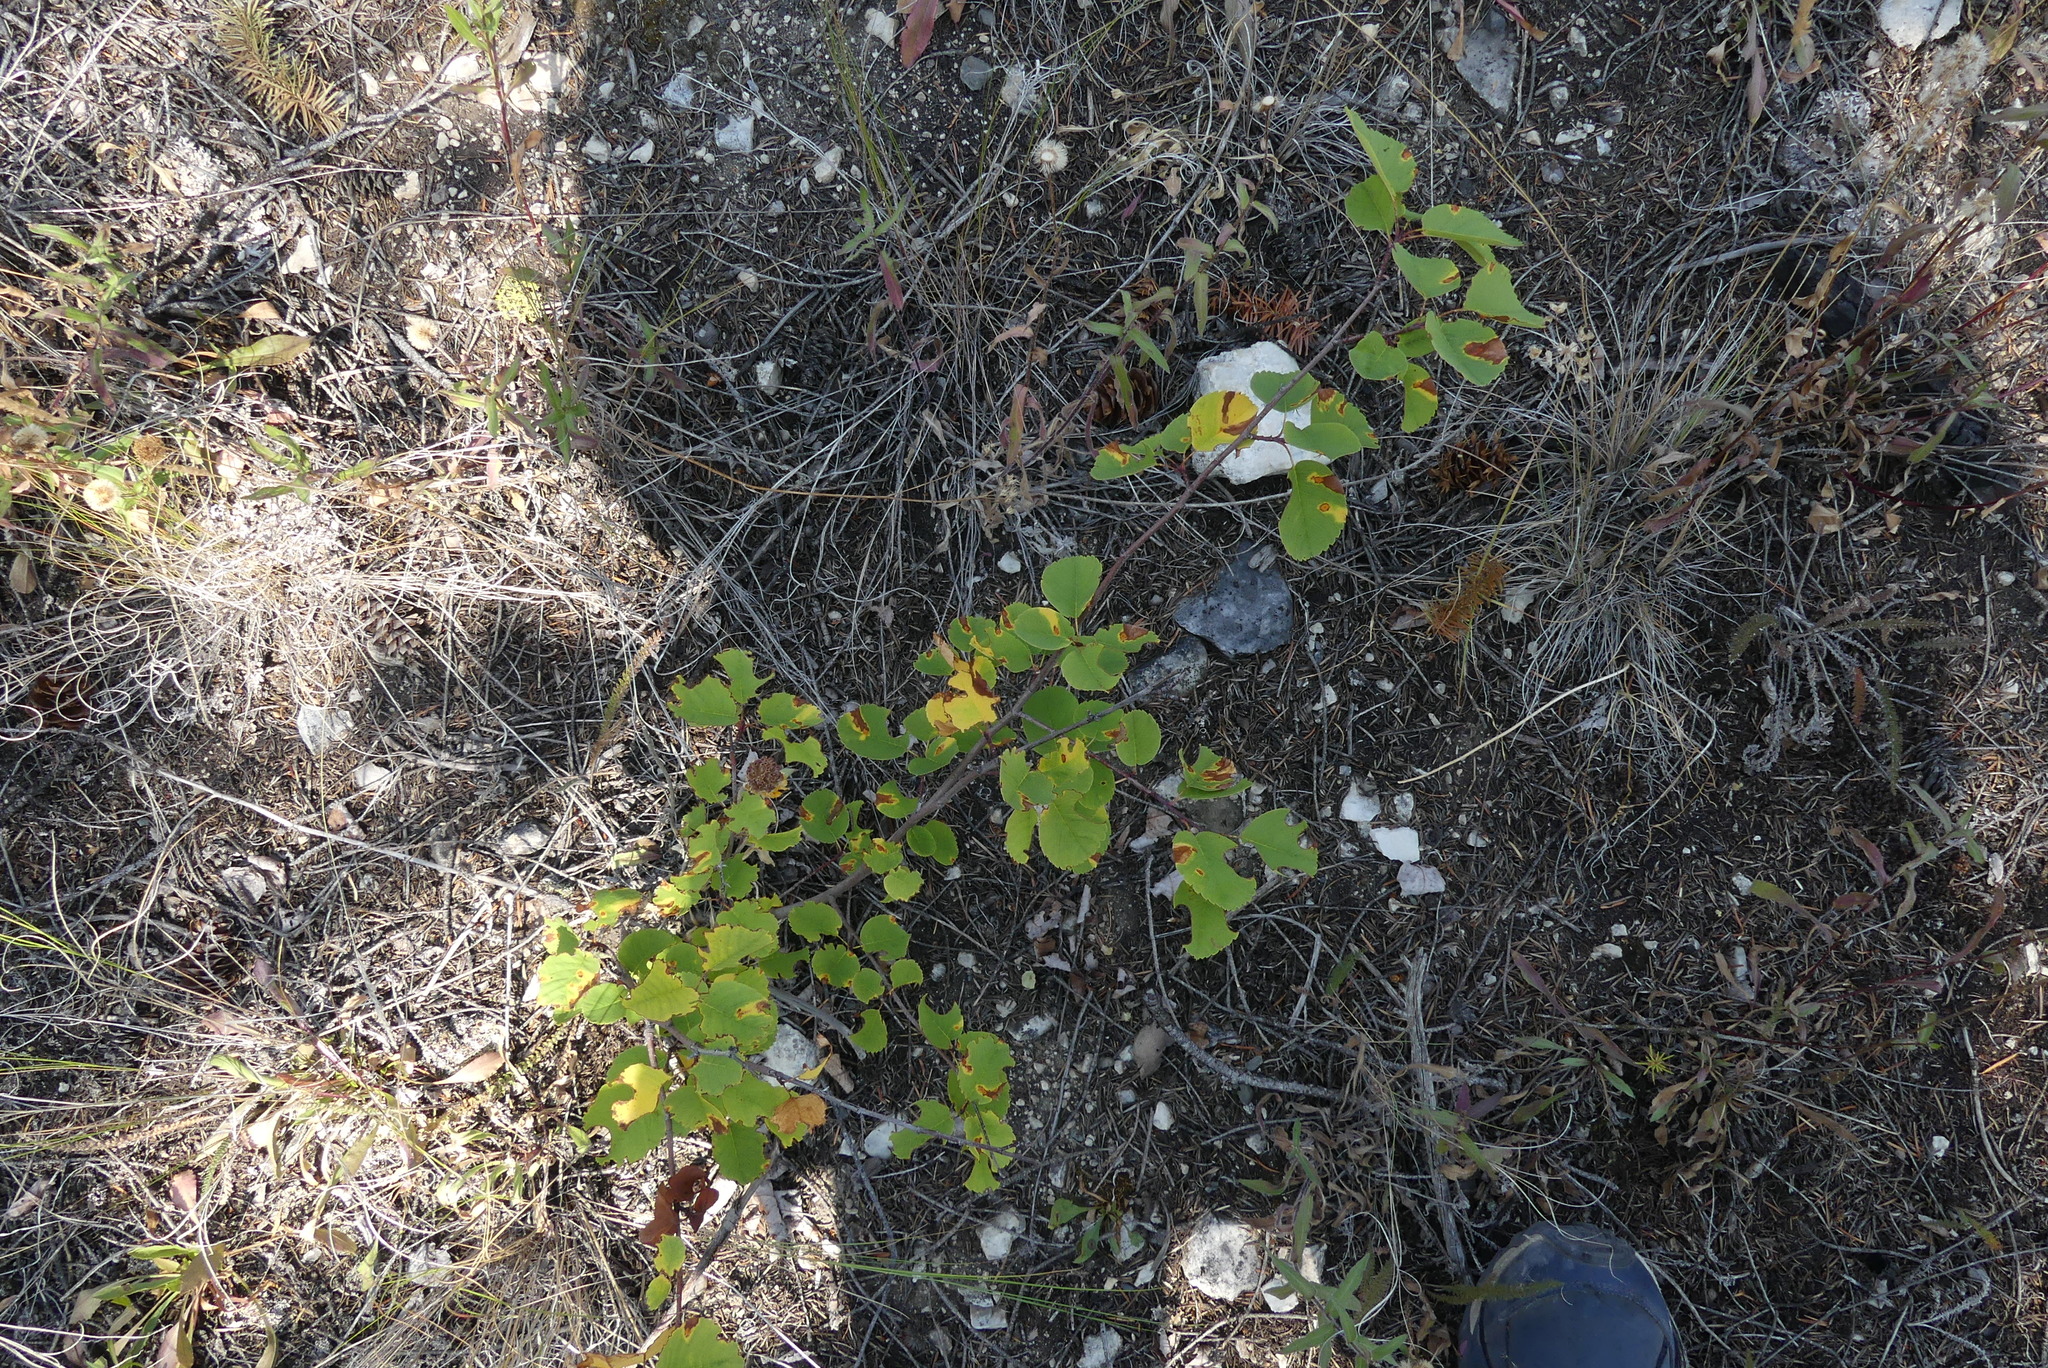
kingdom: Plantae
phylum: Tracheophyta
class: Magnoliopsida
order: Rosales
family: Rosaceae
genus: Amelanchier
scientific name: Amelanchier alnifolia
